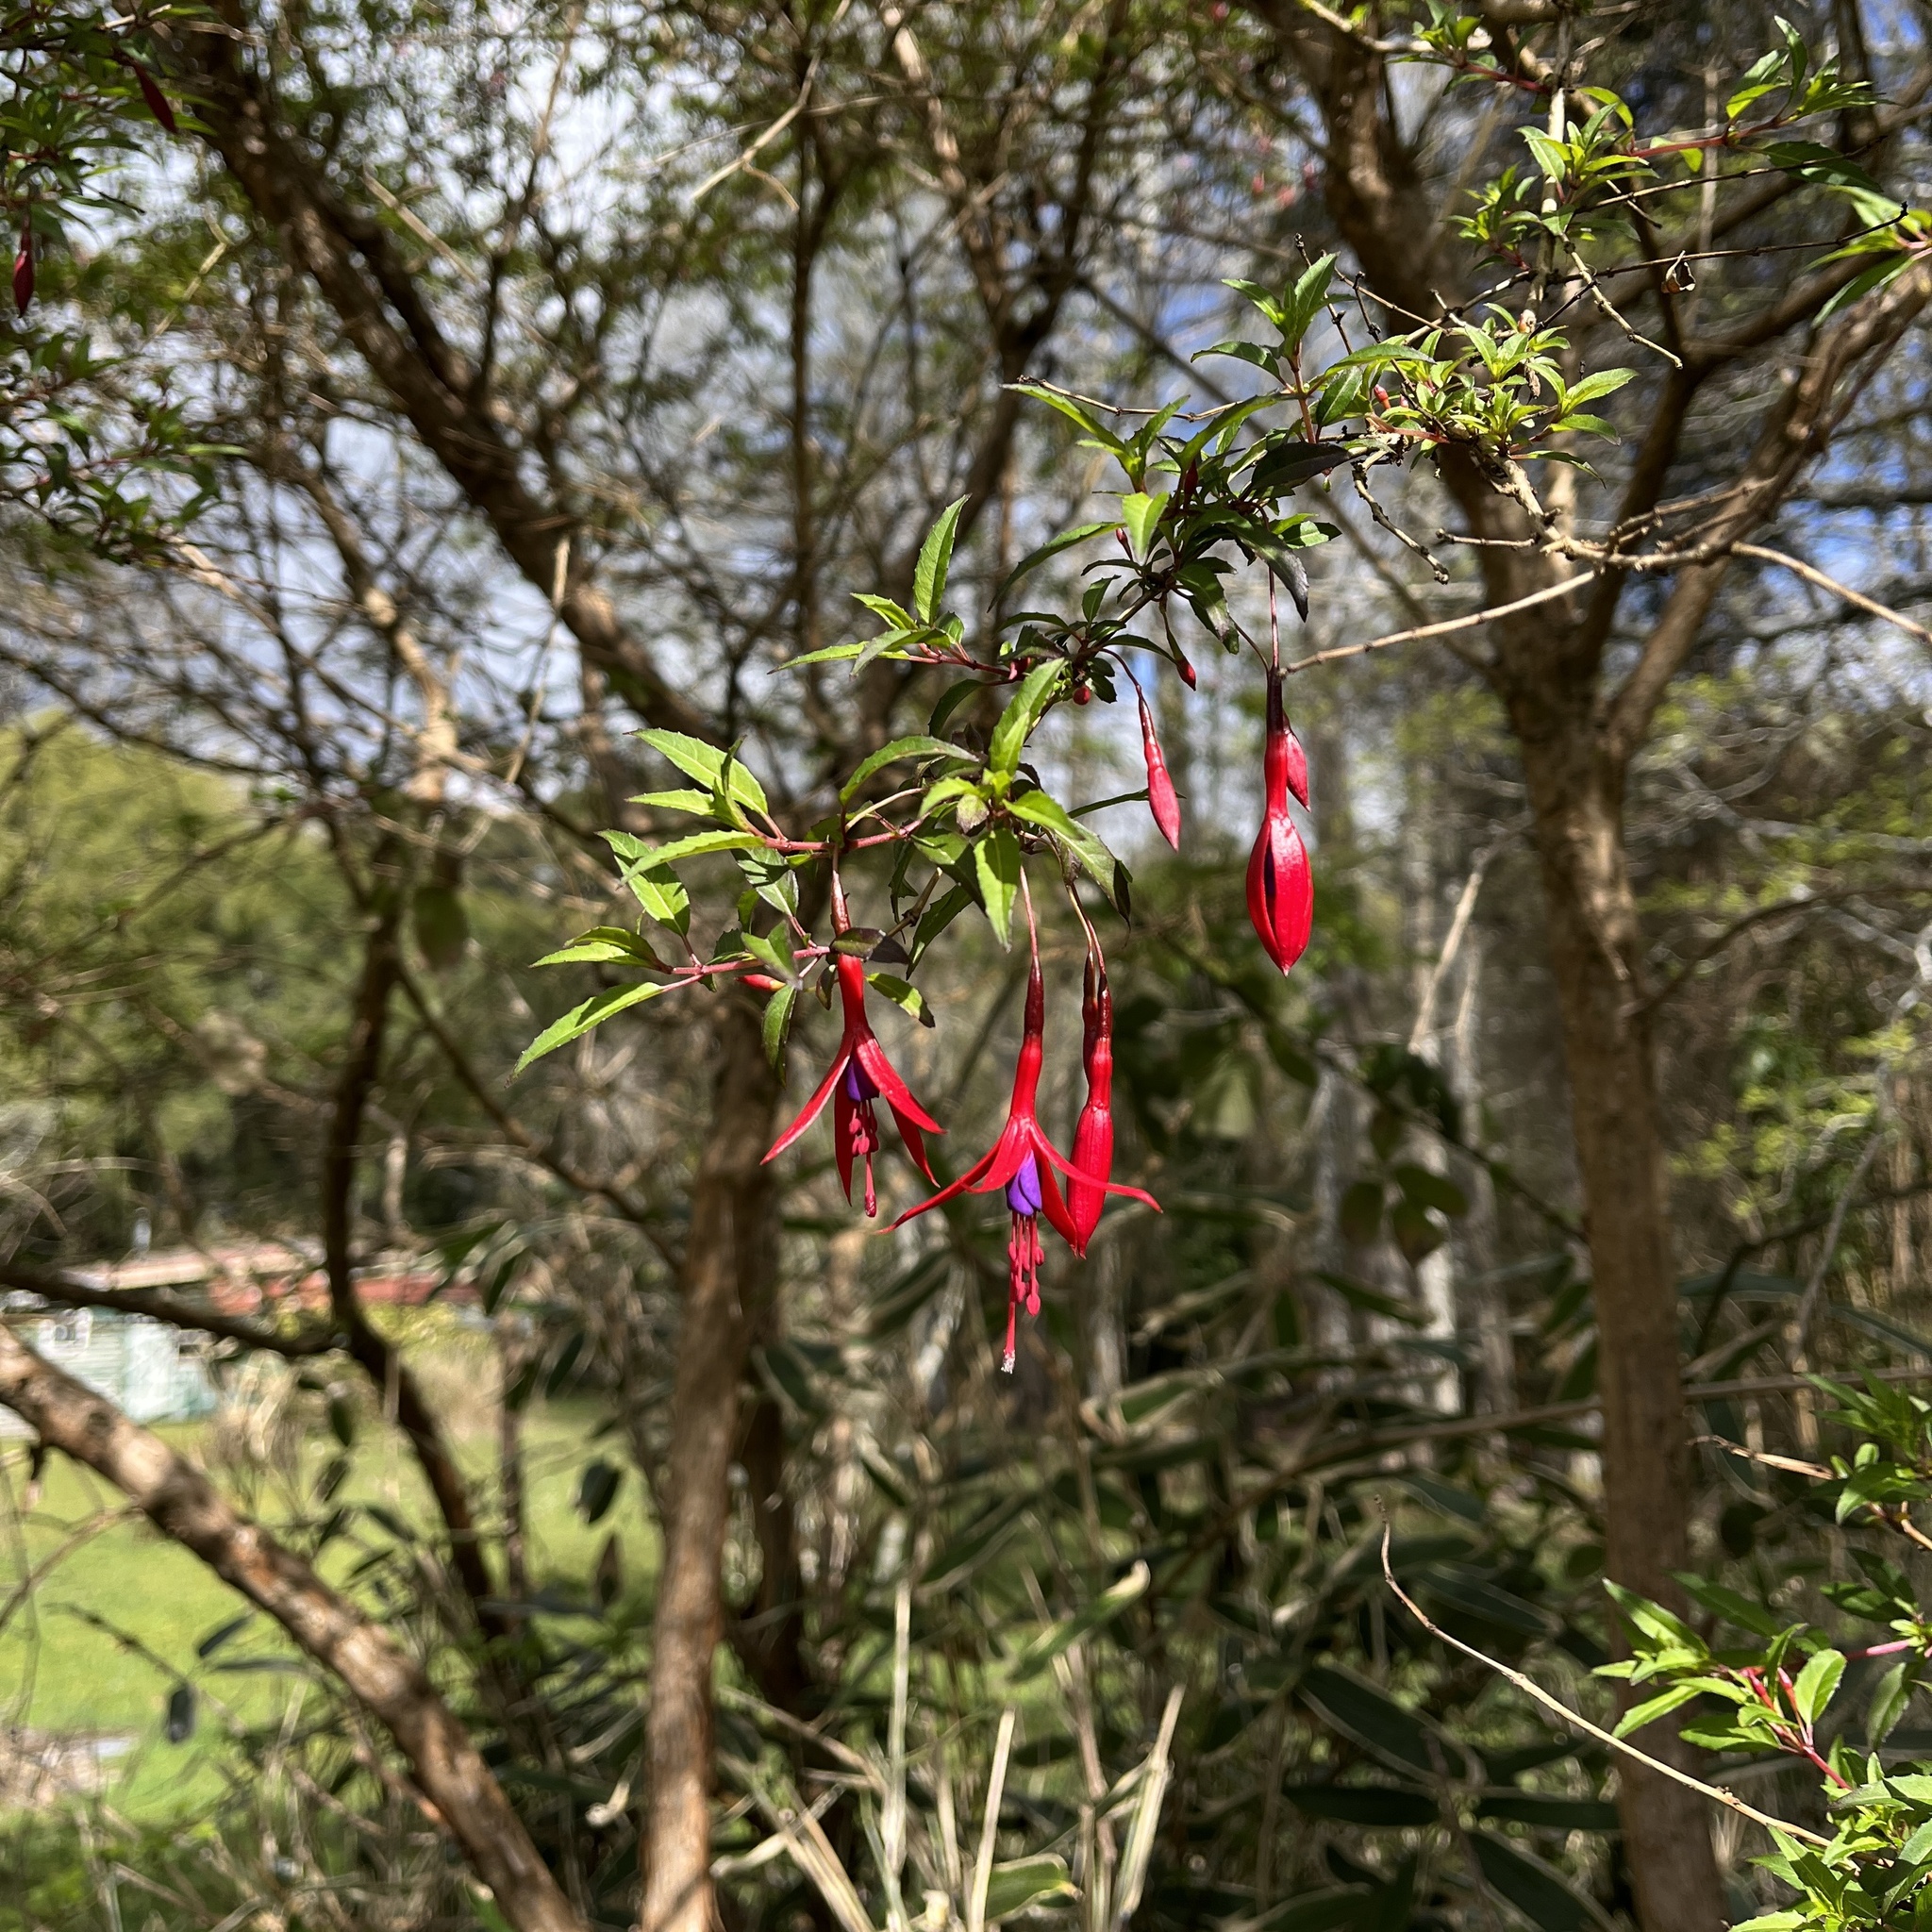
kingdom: Plantae
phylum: Tracheophyta
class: Magnoliopsida
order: Myrtales
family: Onagraceae
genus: Fuchsia
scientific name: Fuchsia magellanica
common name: Hardy fuchsia
